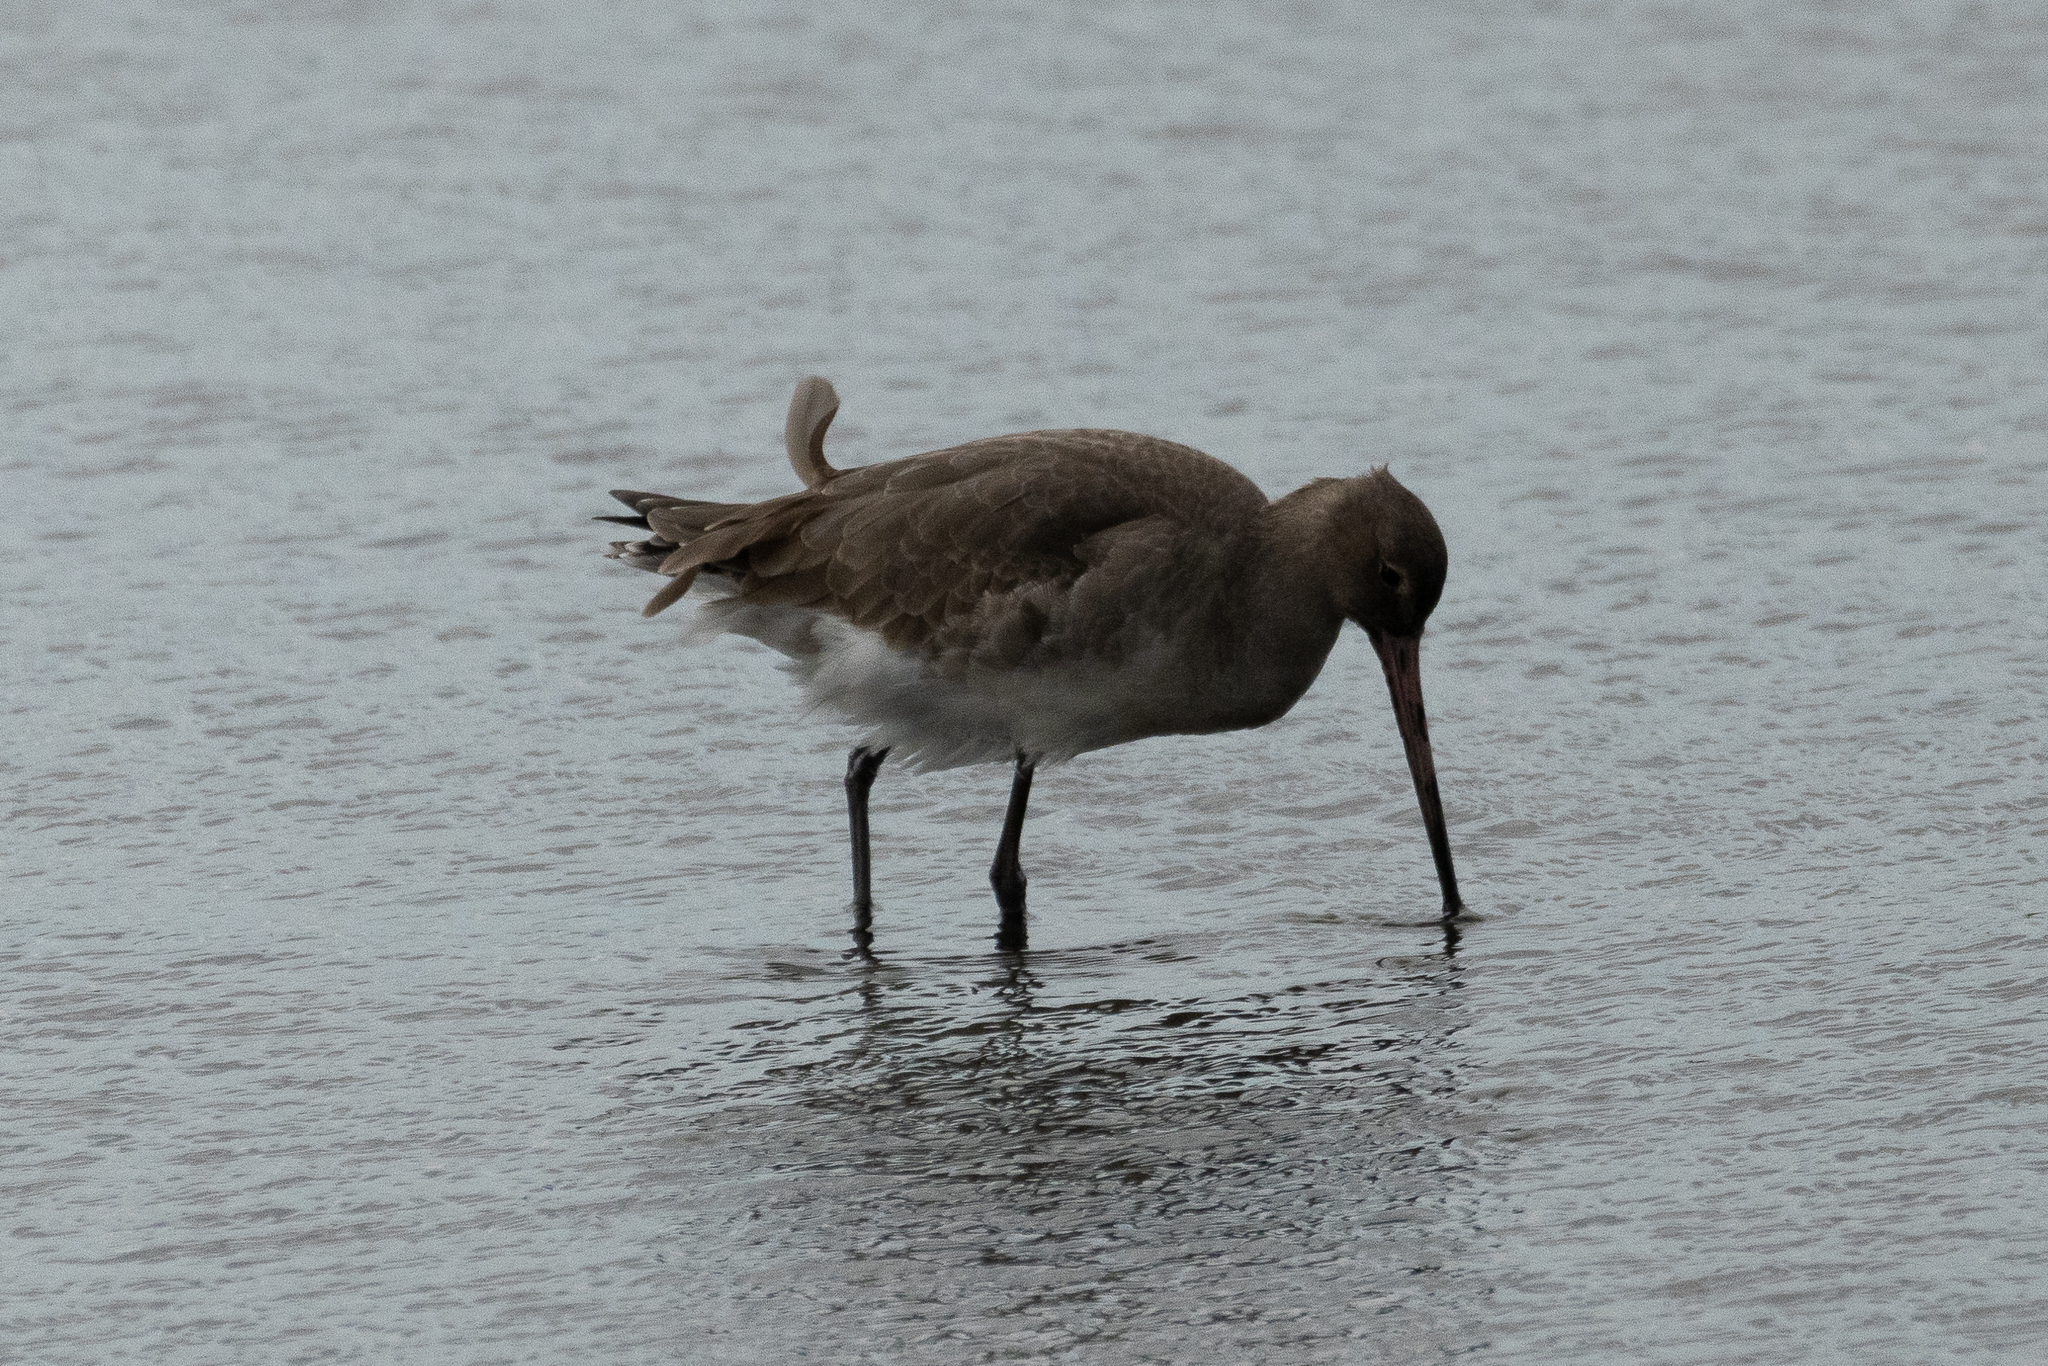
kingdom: Animalia
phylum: Chordata
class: Aves
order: Charadriiformes
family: Scolopacidae
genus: Limosa
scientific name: Limosa limosa
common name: Black-tailed godwit
